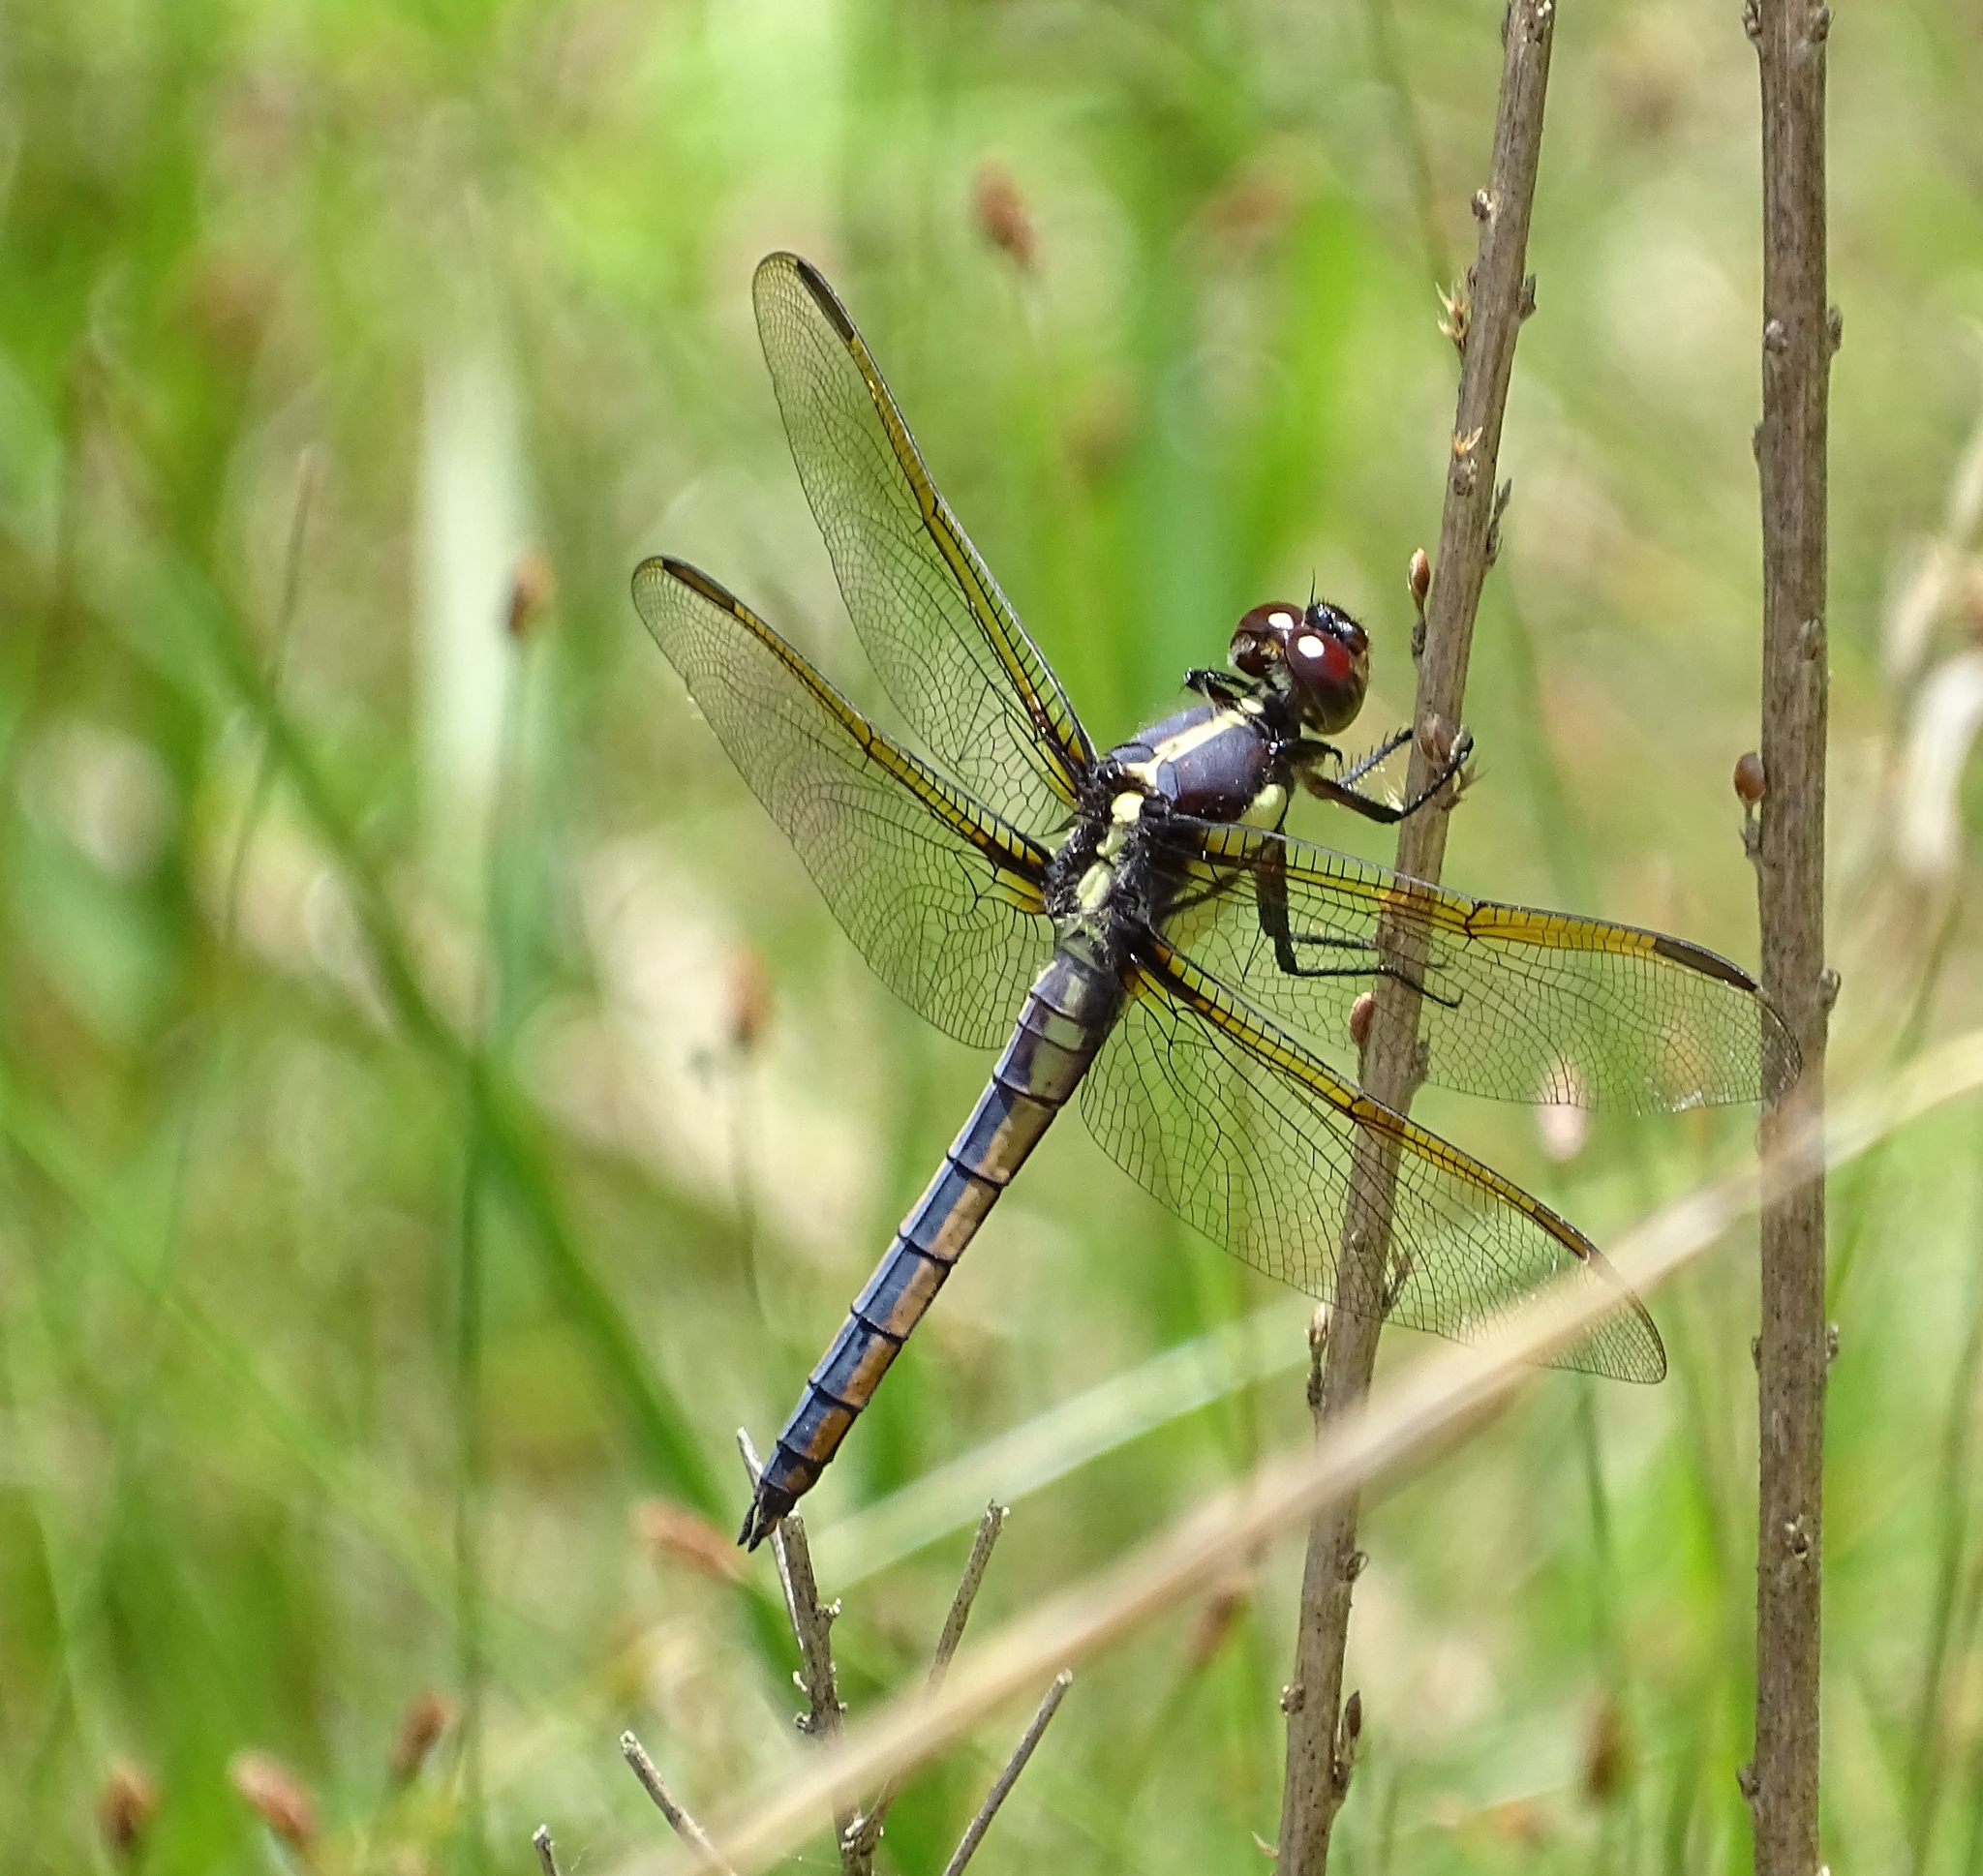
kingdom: Animalia
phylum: Arthropoda
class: Insecta
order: Odonata
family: Libellulidae
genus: Libellula
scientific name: Libellula flavida
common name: Yellow-sided skimmer
